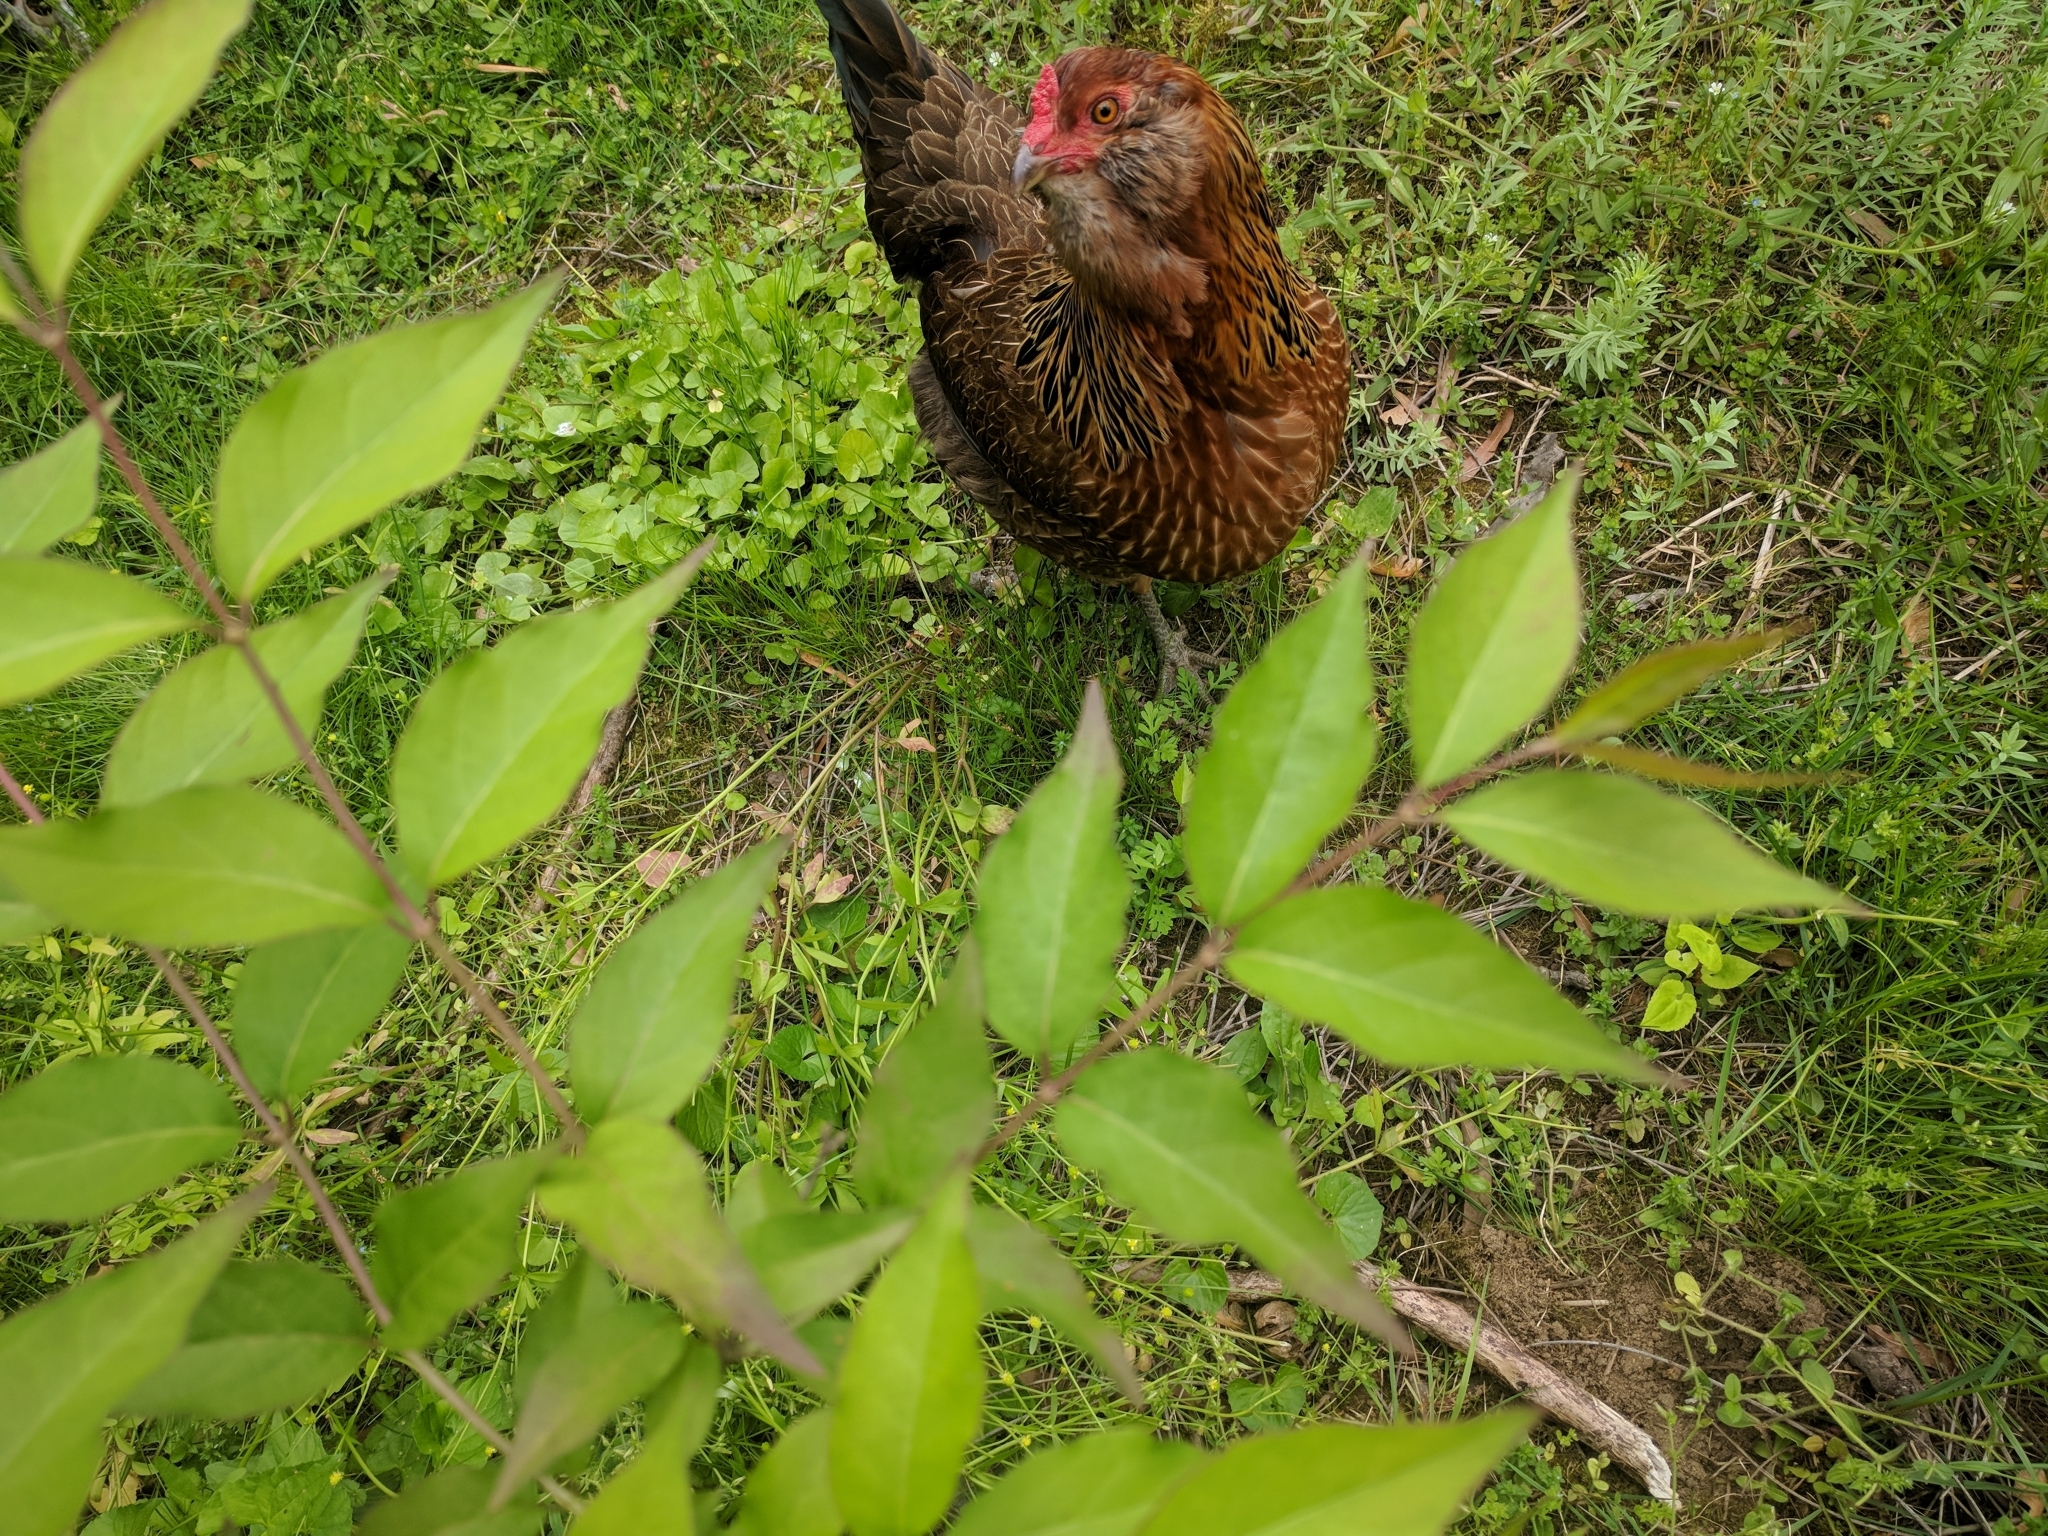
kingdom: Plantae
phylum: Tracheophyta
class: Magnoliopsida
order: Dipsacales
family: Caprifoliaceae
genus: Lonicera
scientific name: Lonicera maackii
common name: Amur honeysuckle
